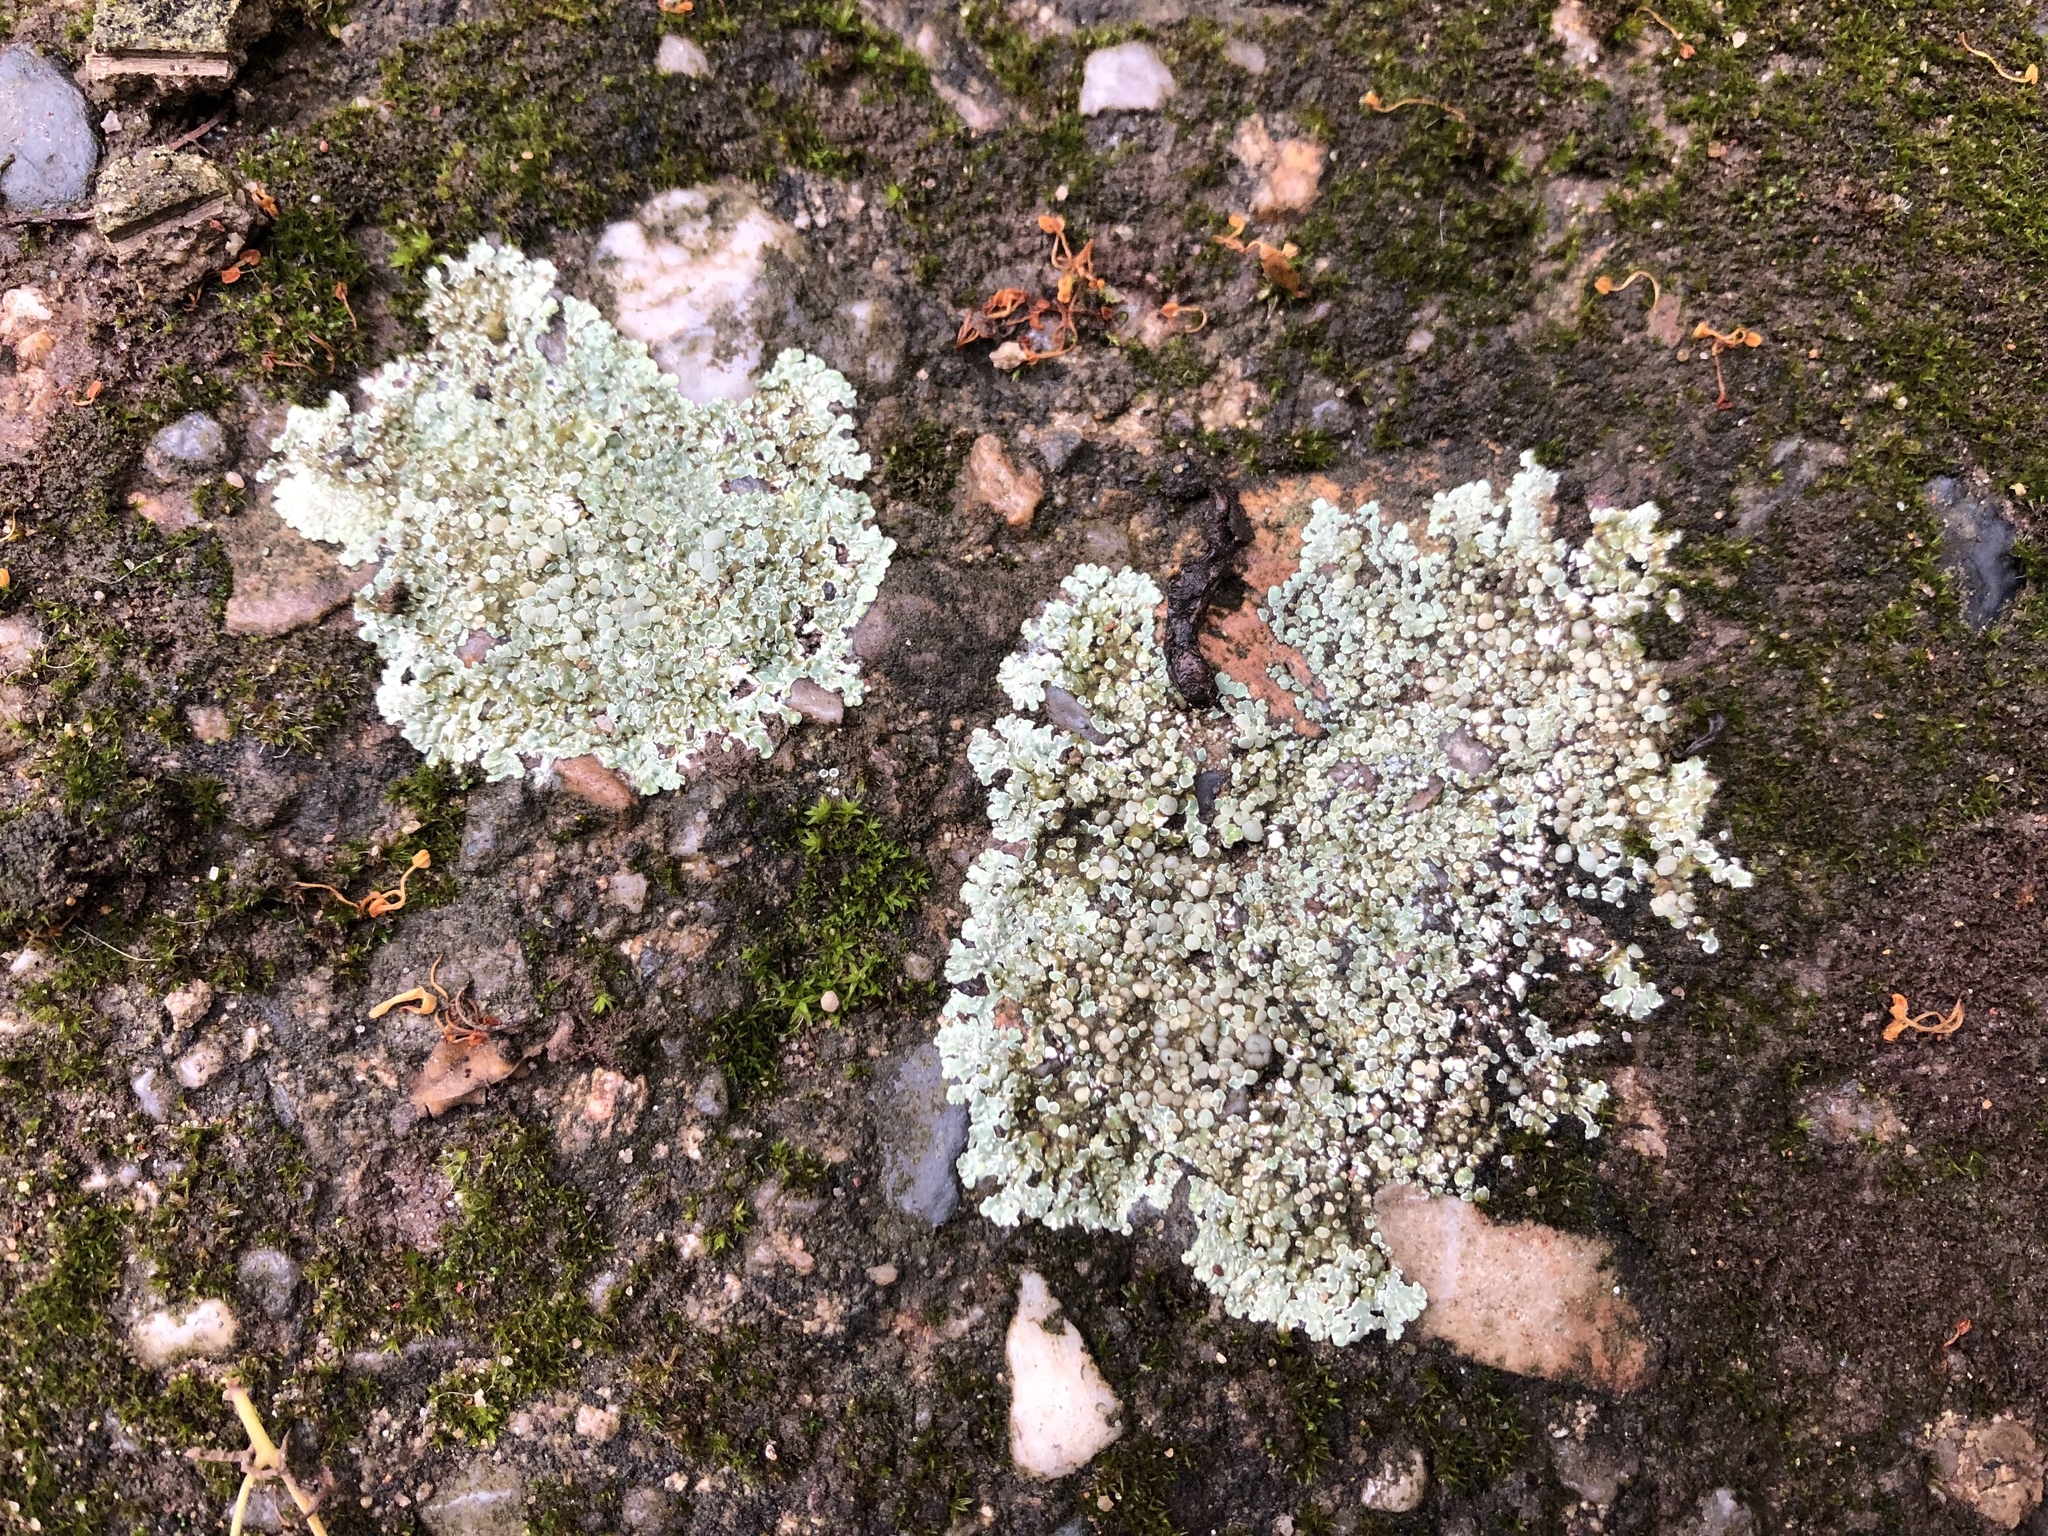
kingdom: Fungi
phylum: Ascomycota
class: Lecanoromycetes
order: Lecanorales
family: Lecanoraceae
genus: Protoparmeliopsis
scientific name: Protoparmeliopsis muralis
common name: Stonewall rim lichen
